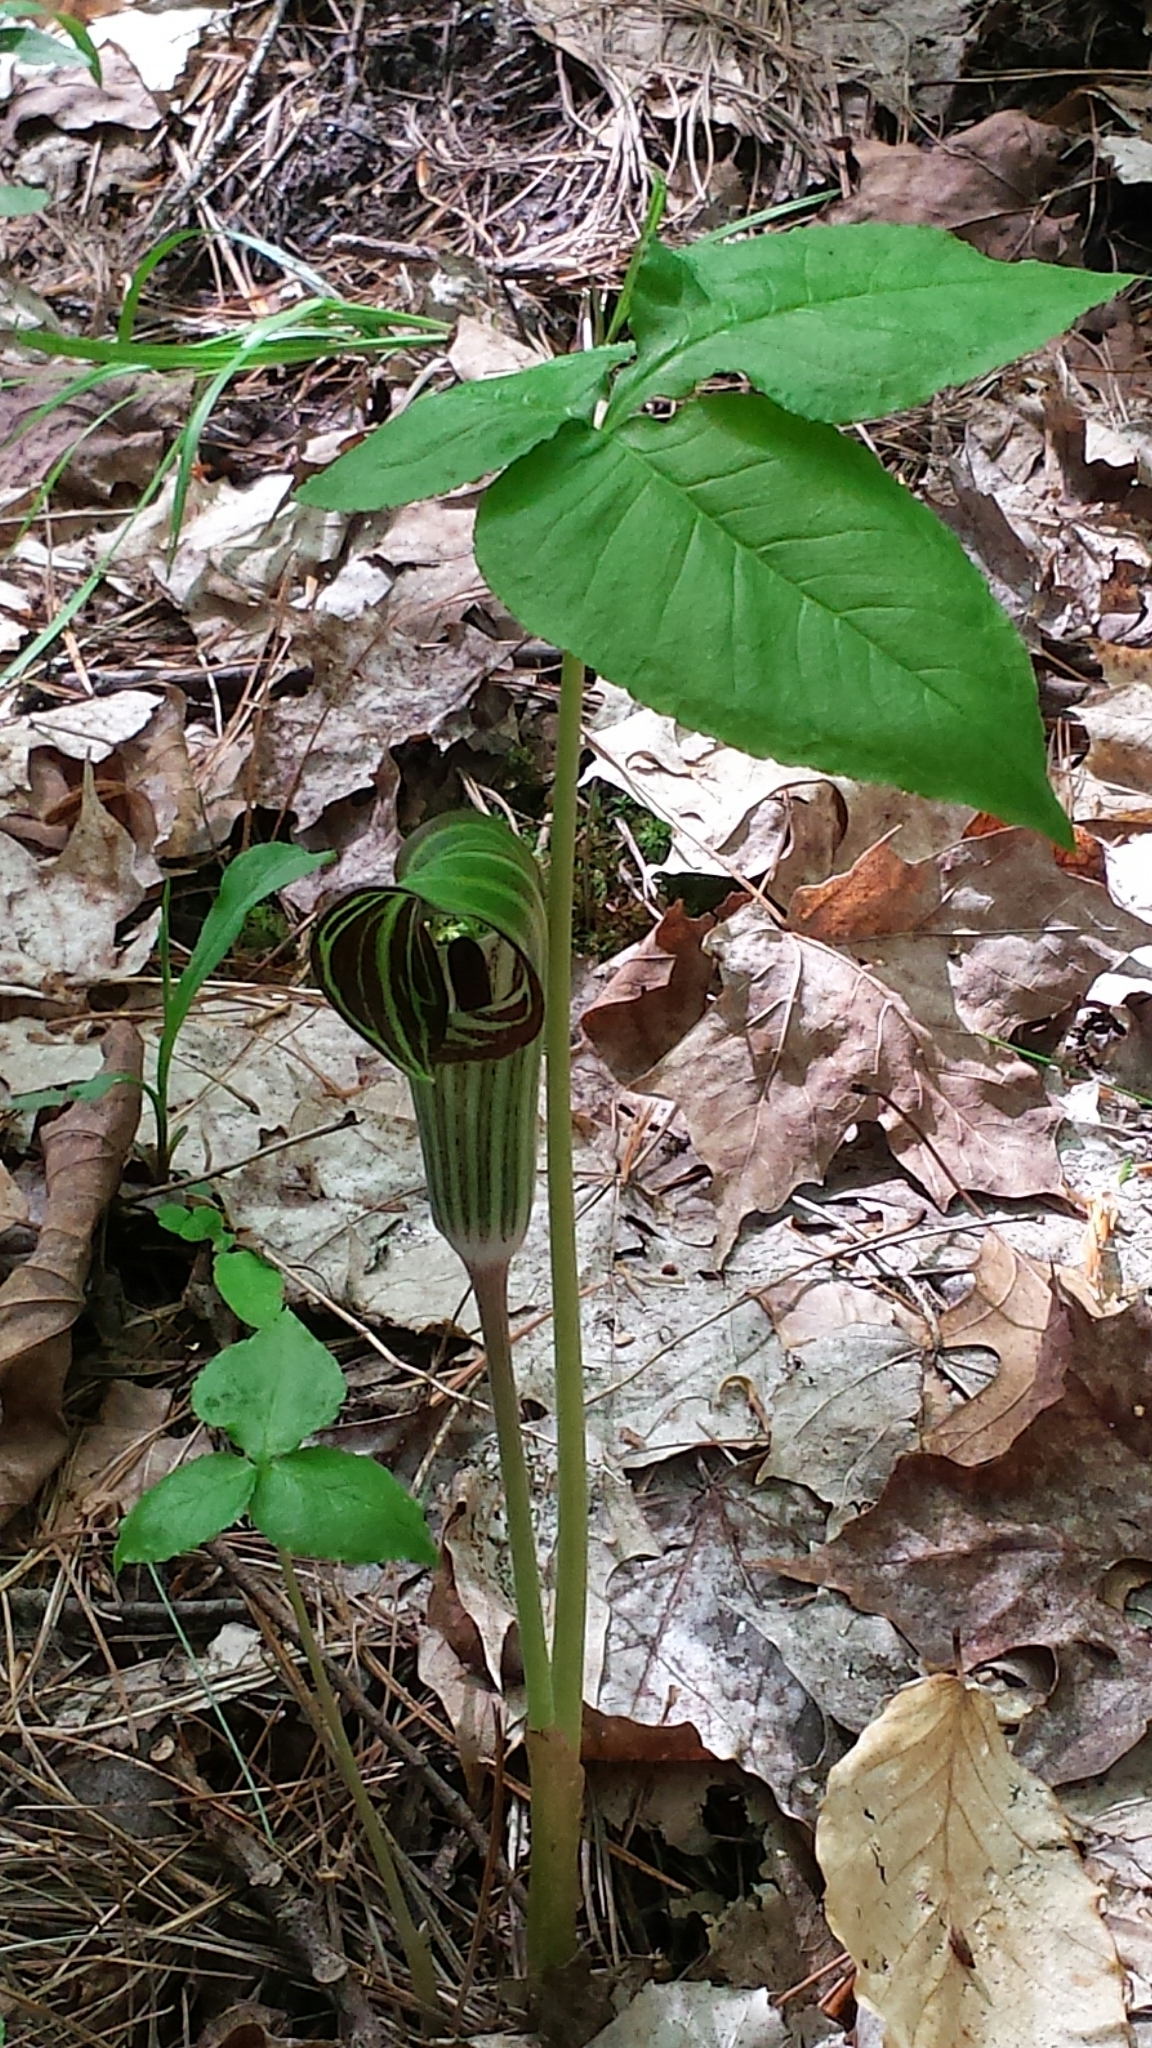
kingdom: Plantae
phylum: Tracheophyta
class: Liliopsida
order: Alismatales
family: Araceae
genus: Arisaema
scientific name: Arisaema triphyllum
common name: Jack-in-the-pulpit
